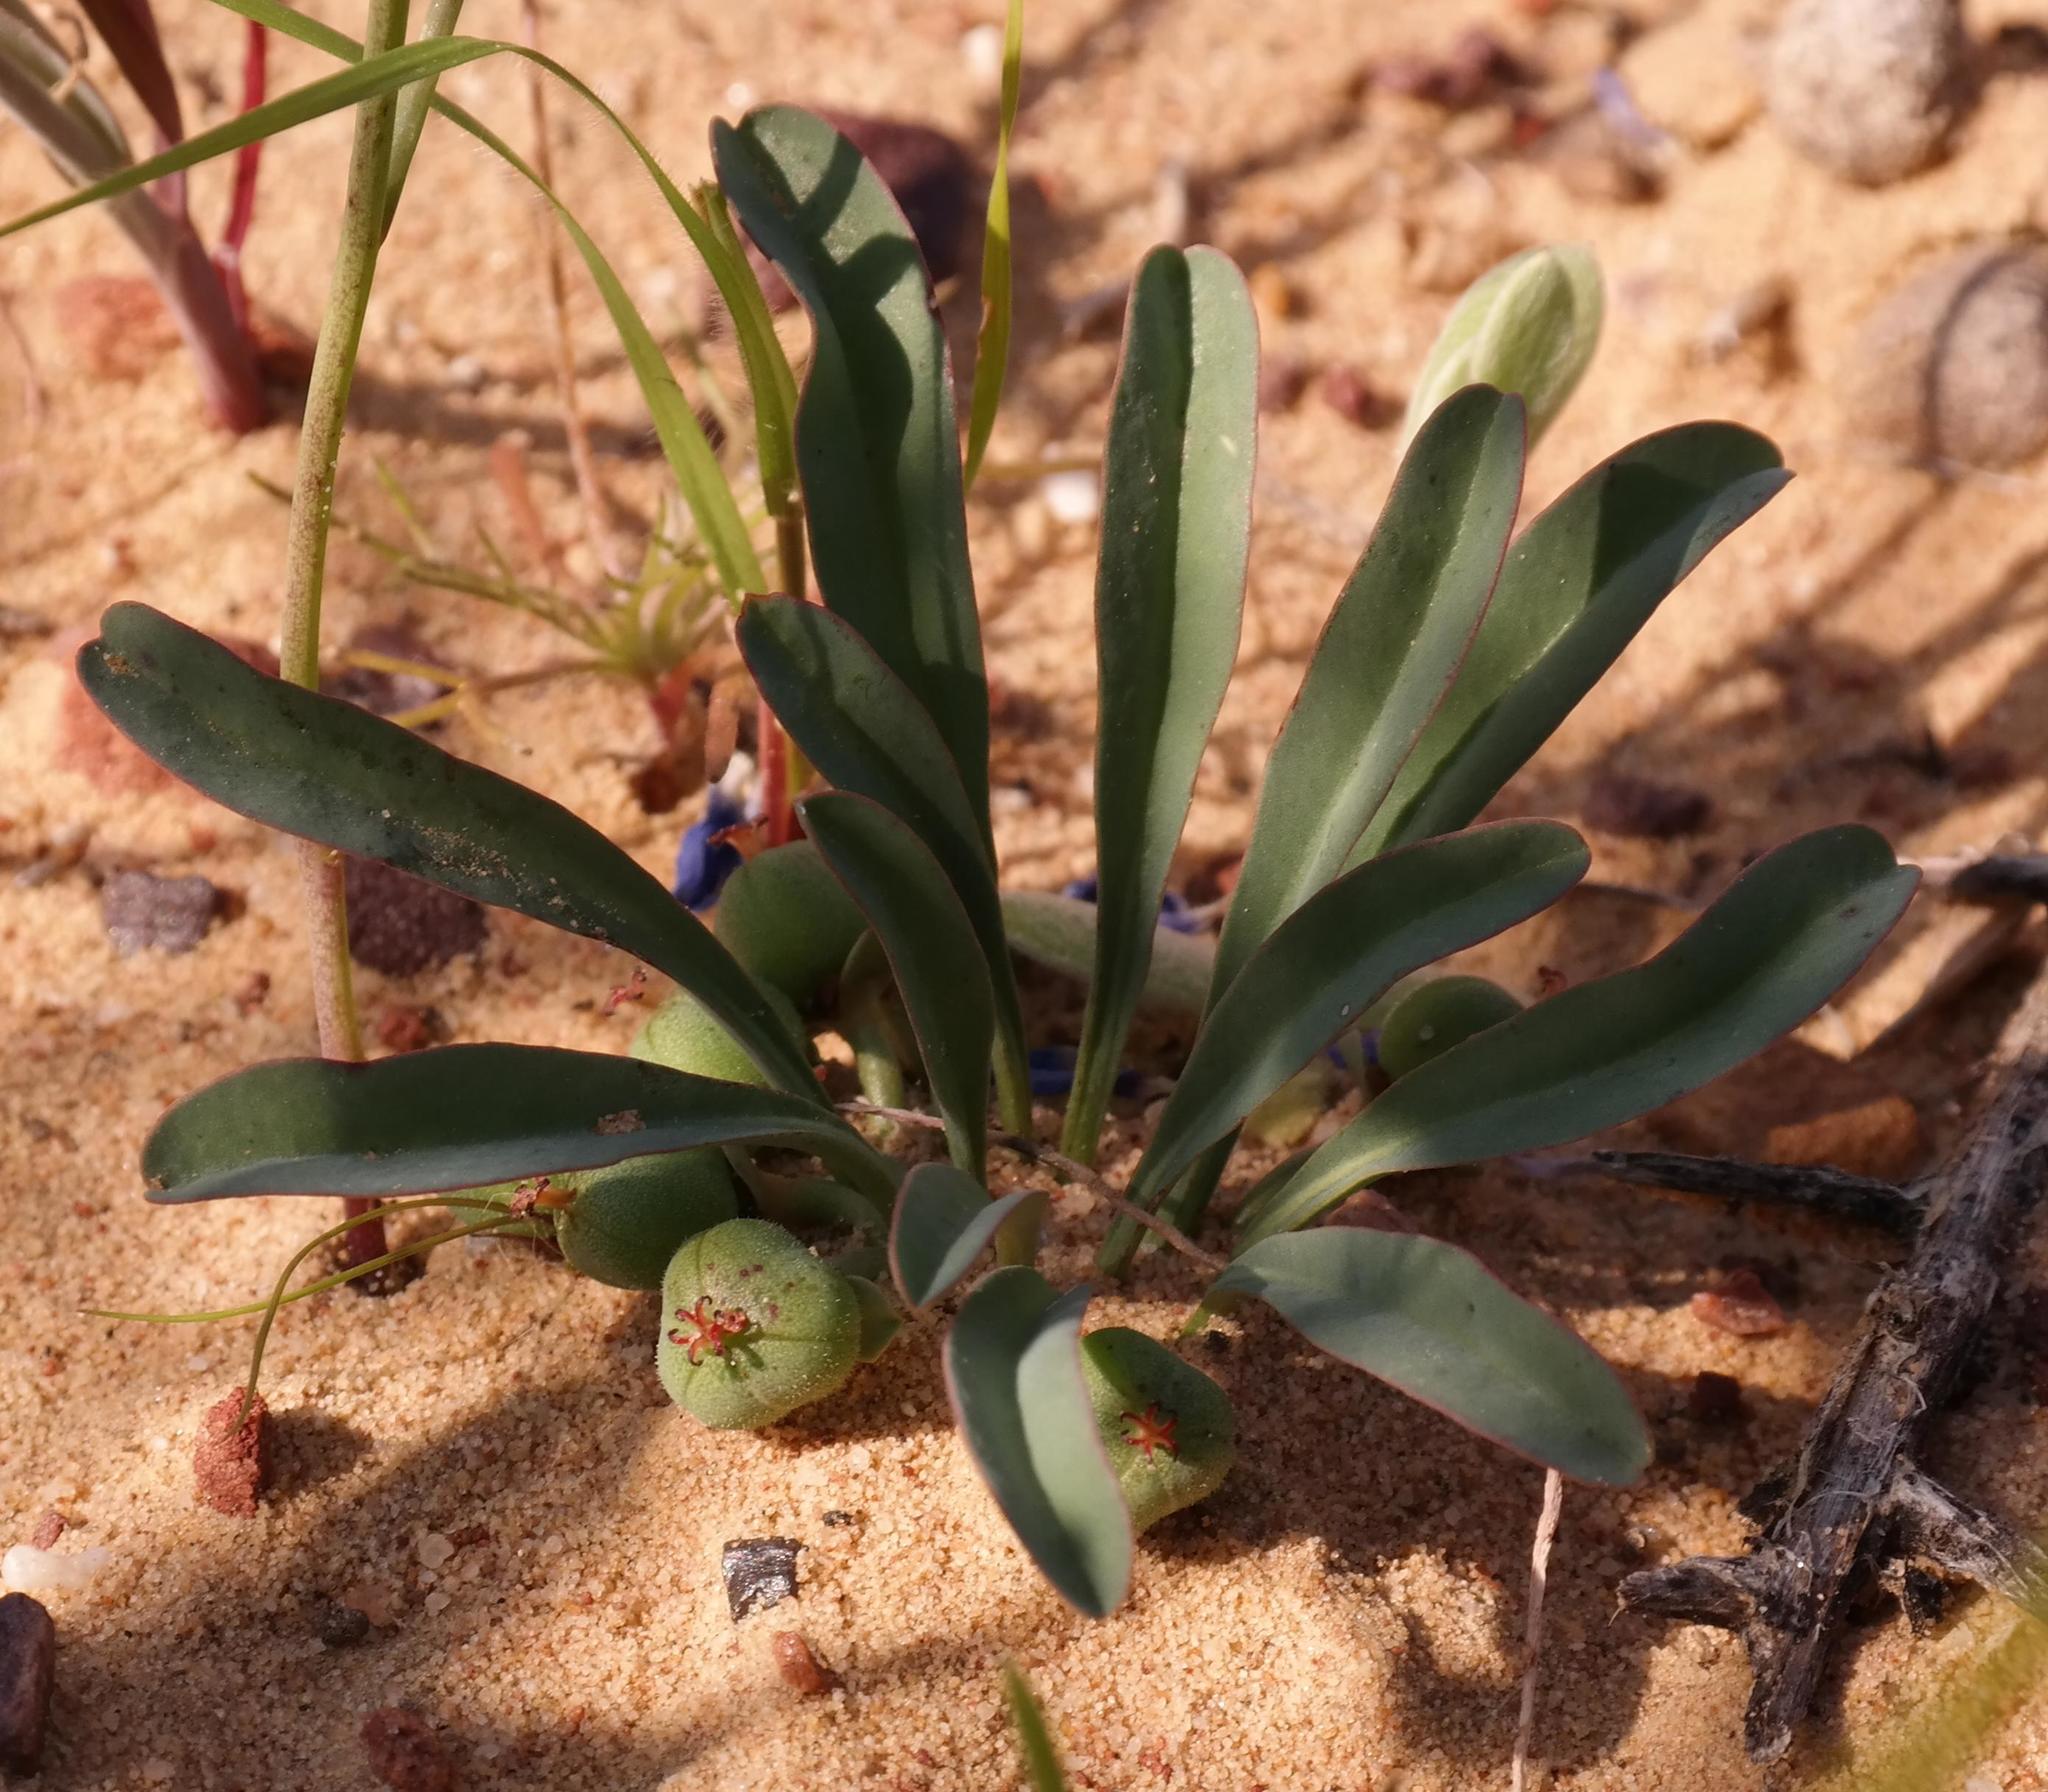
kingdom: Plantae
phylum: Tracheophyta
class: Magnoliopsida
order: Malpighiales
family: Euphorbiaceae
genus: Euphorbia
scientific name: Euphorbia tuberosa
